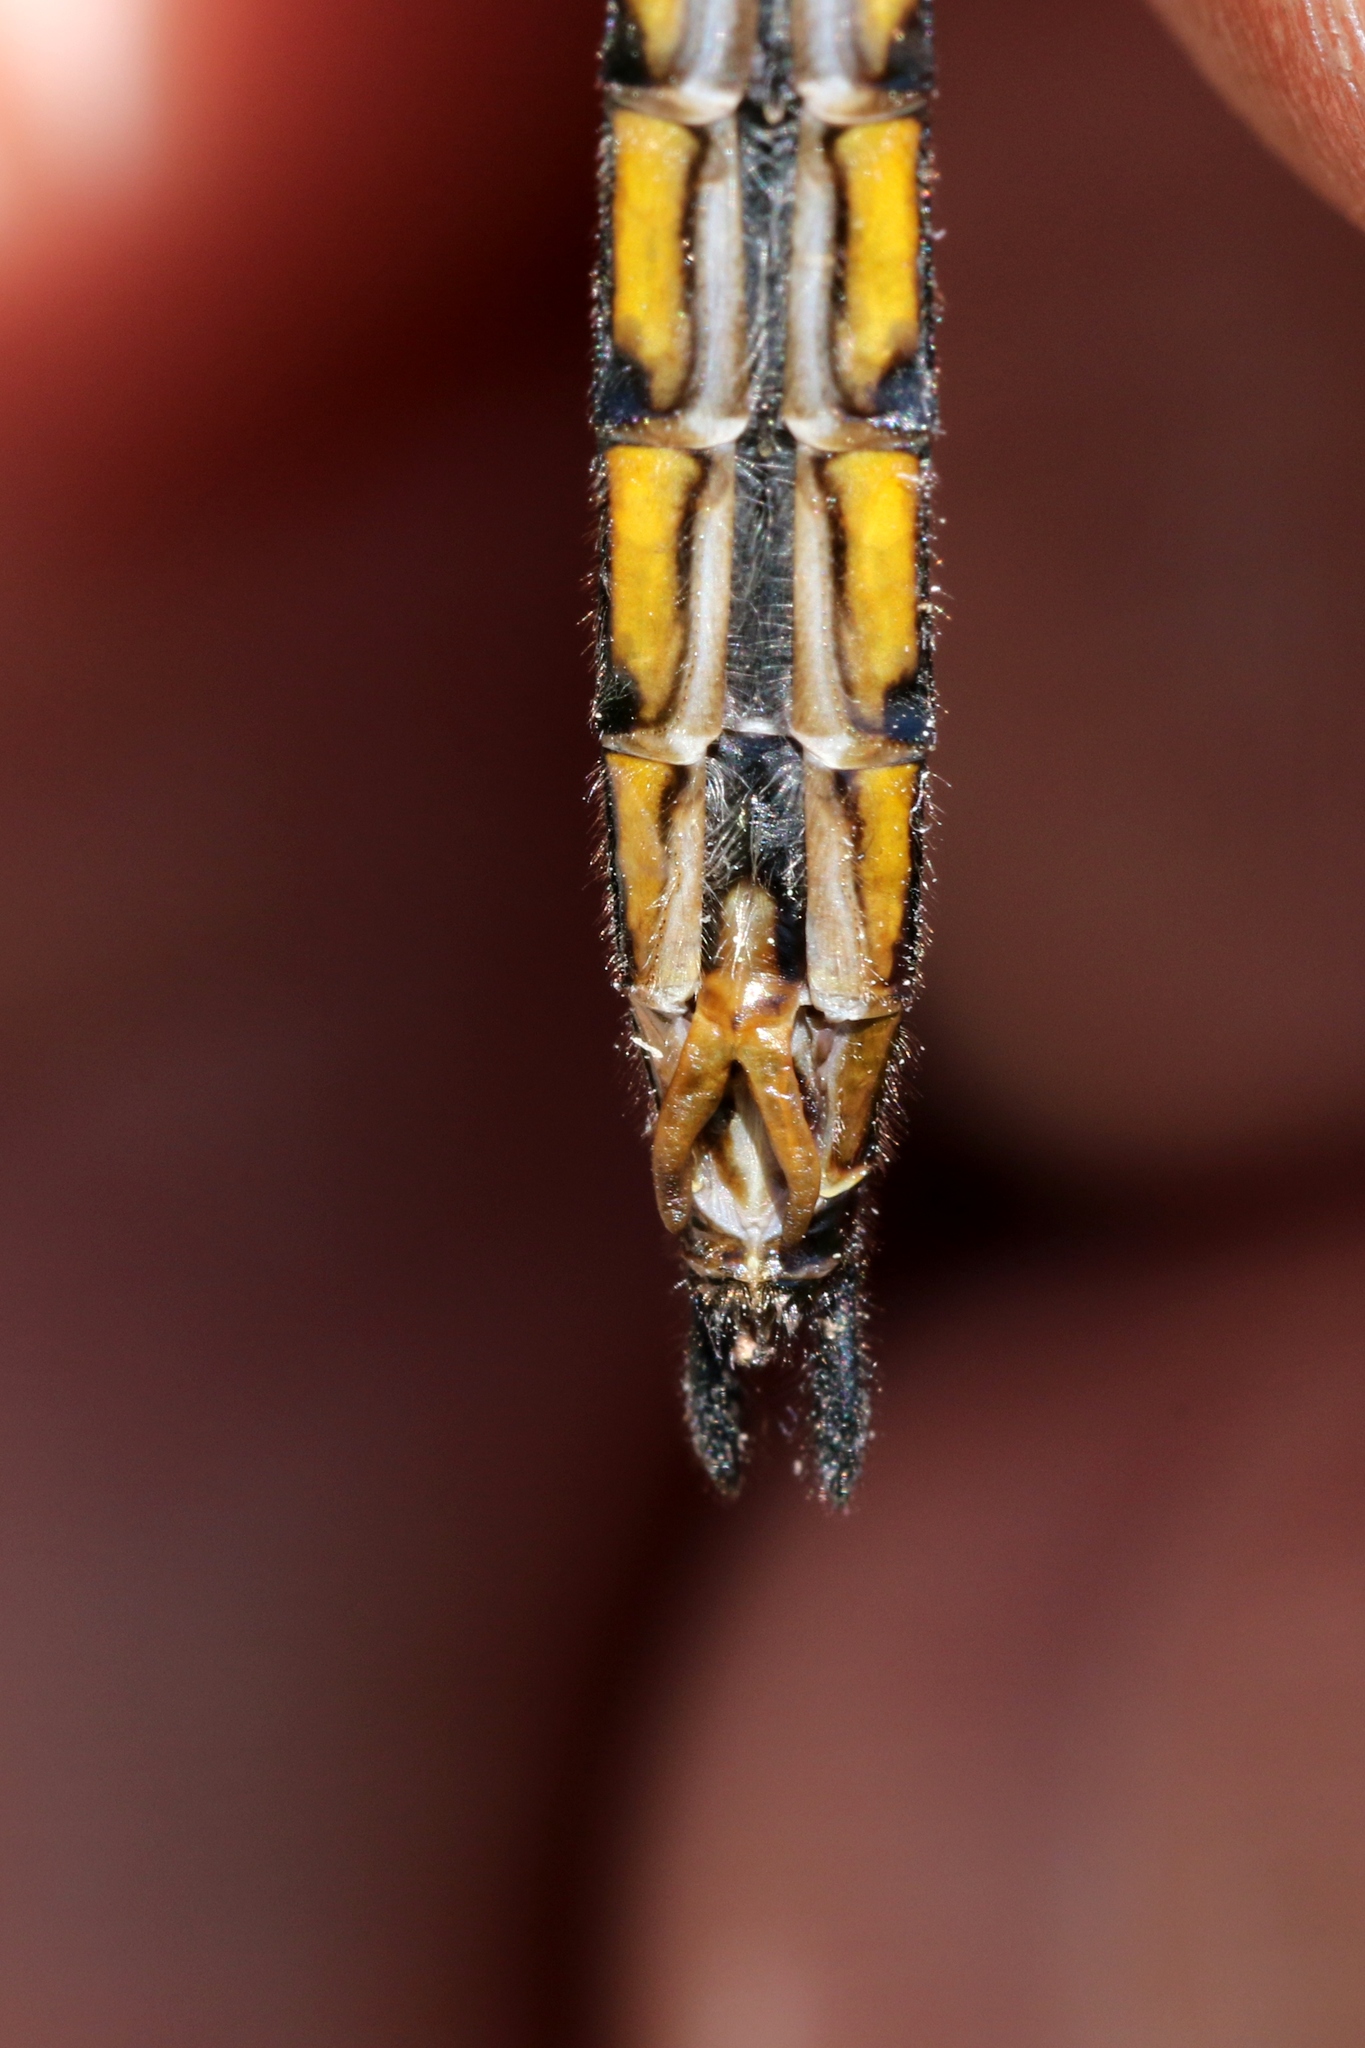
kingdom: Animalia
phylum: Arthropoda
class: Insecta
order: Odonata
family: Corduliidae
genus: Epitheca
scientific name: Epitheca spinigera
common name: Spiny baskettail
